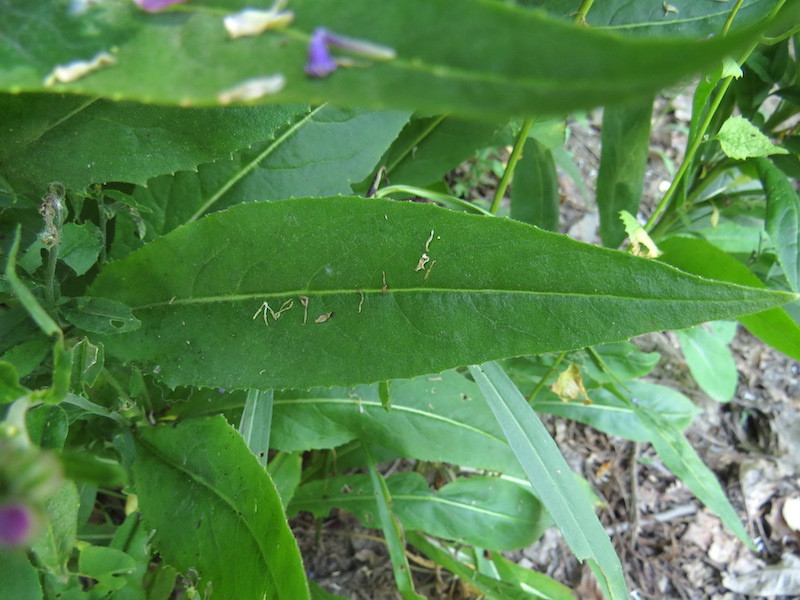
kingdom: Plantae
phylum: Tracheophyta
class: Magnoliopsida
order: Brassicales
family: Brassicaceae
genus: Hesperis
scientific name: Hesperis matronalis
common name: Dame's-violet
